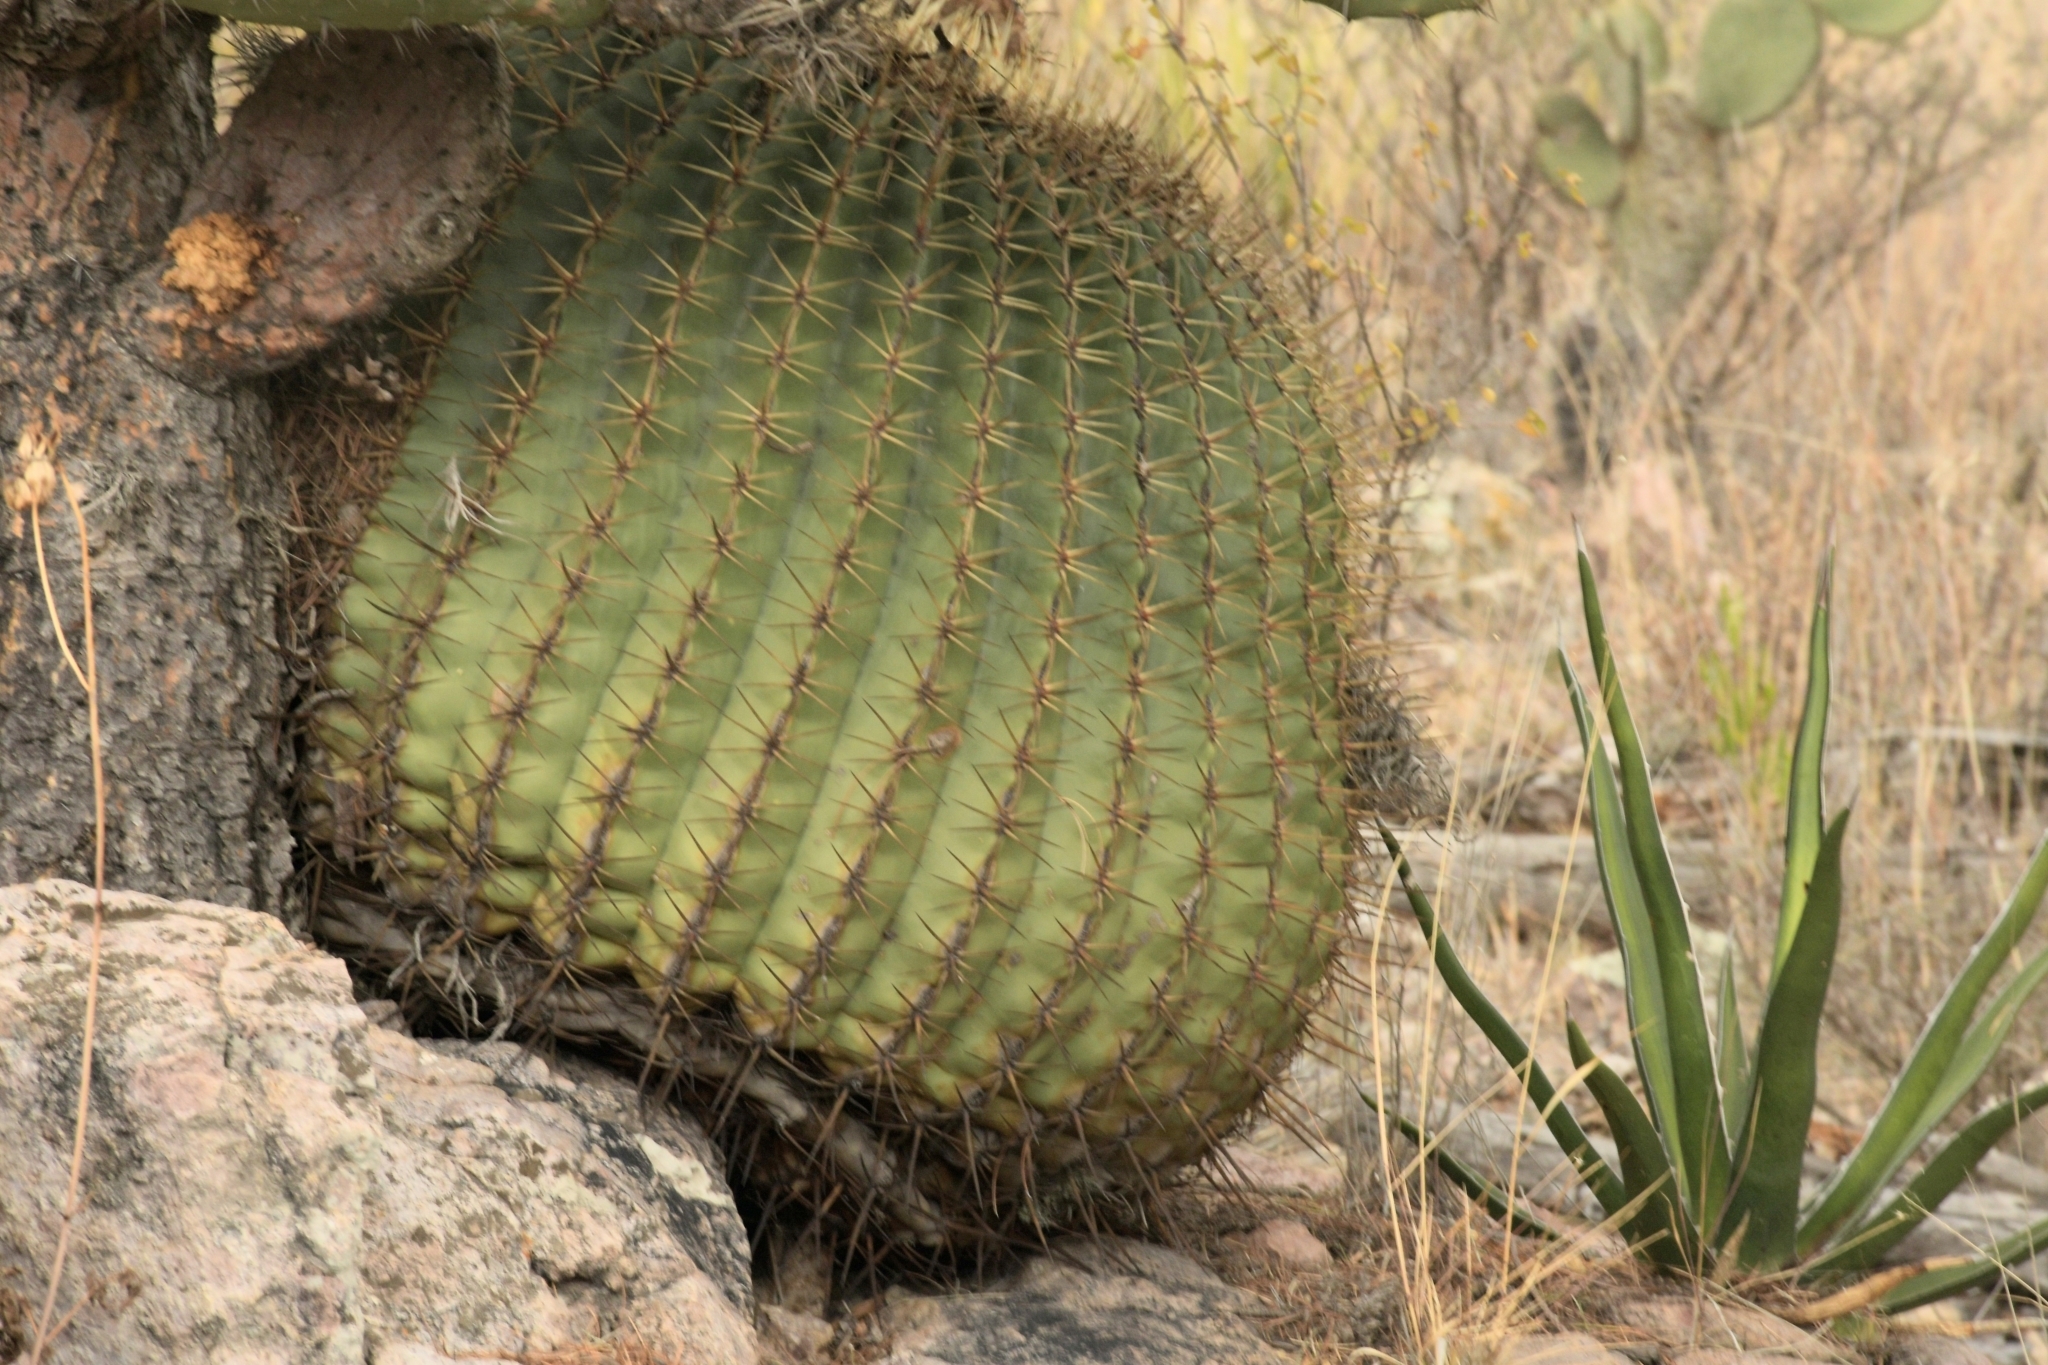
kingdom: Plantae
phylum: Tracheophyta
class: Magnoliopsida
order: Caryophyllales
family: Cactaceae
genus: Bisnaga
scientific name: Bisnaga histrix
